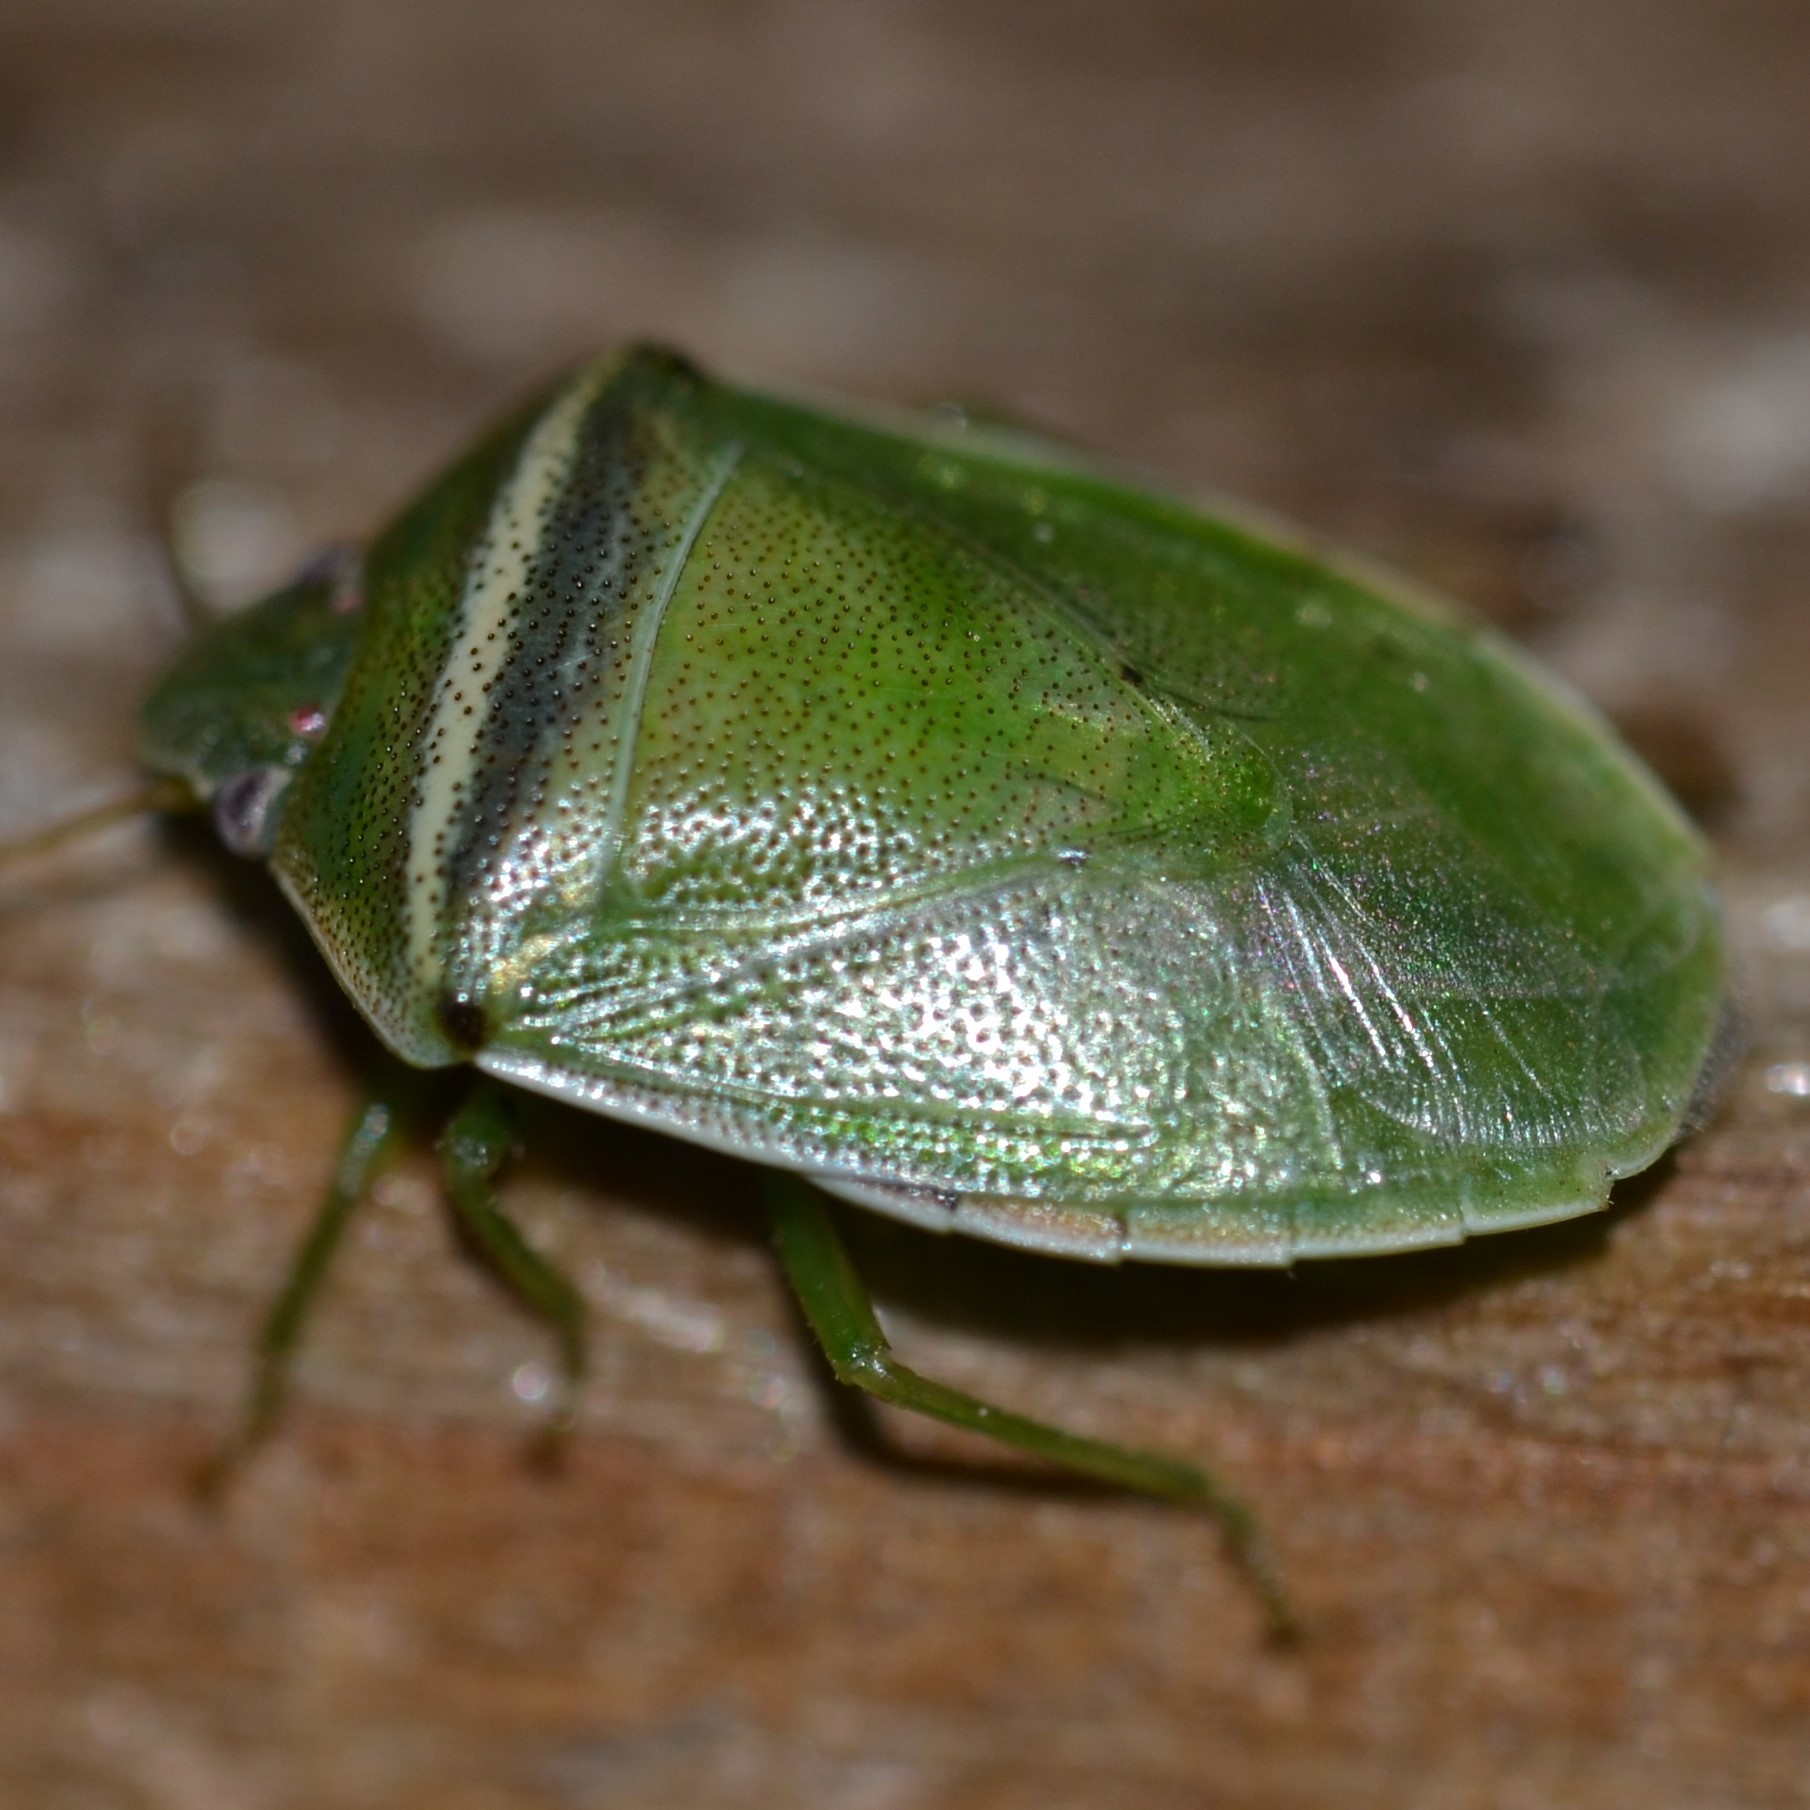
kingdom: Animalia
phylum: Arthropoda
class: Insecta
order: Hemiptera
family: Pentatomidae
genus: Piezodorus
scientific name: Piezodorus guildinii
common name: Redbanded stink bug
